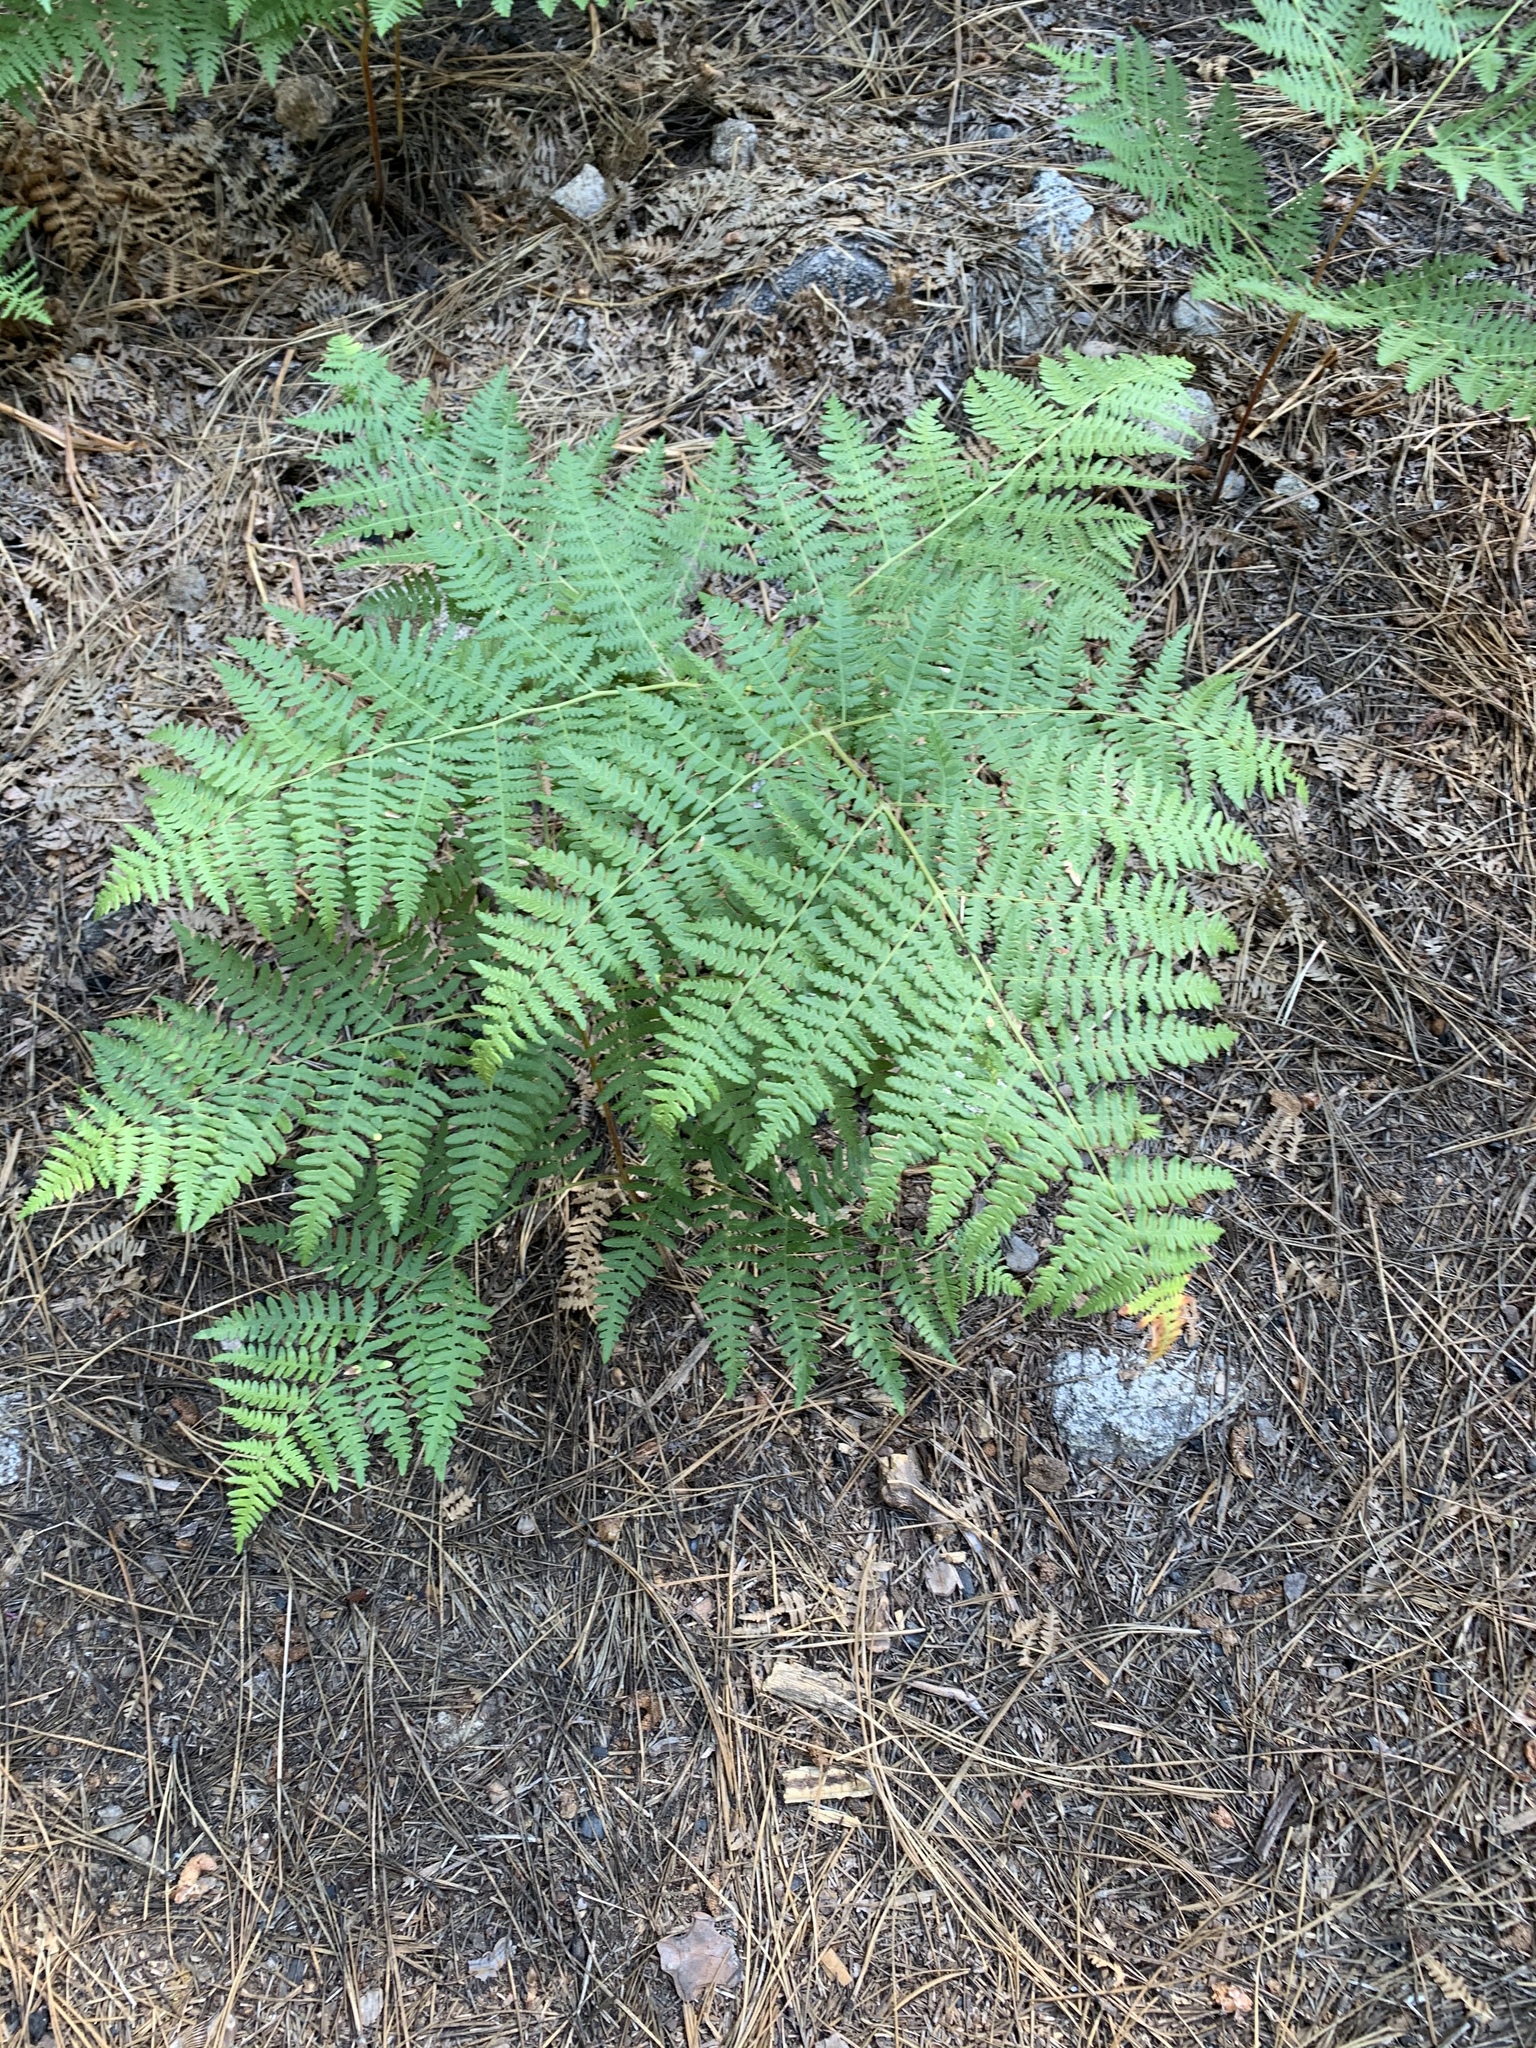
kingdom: Plantae
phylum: Tracheophyta
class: Polypodiopsida
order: Polypodiales
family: Dennstaedtiaceae
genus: Pteridium
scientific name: Pteridium aquilinum
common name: Bracken
